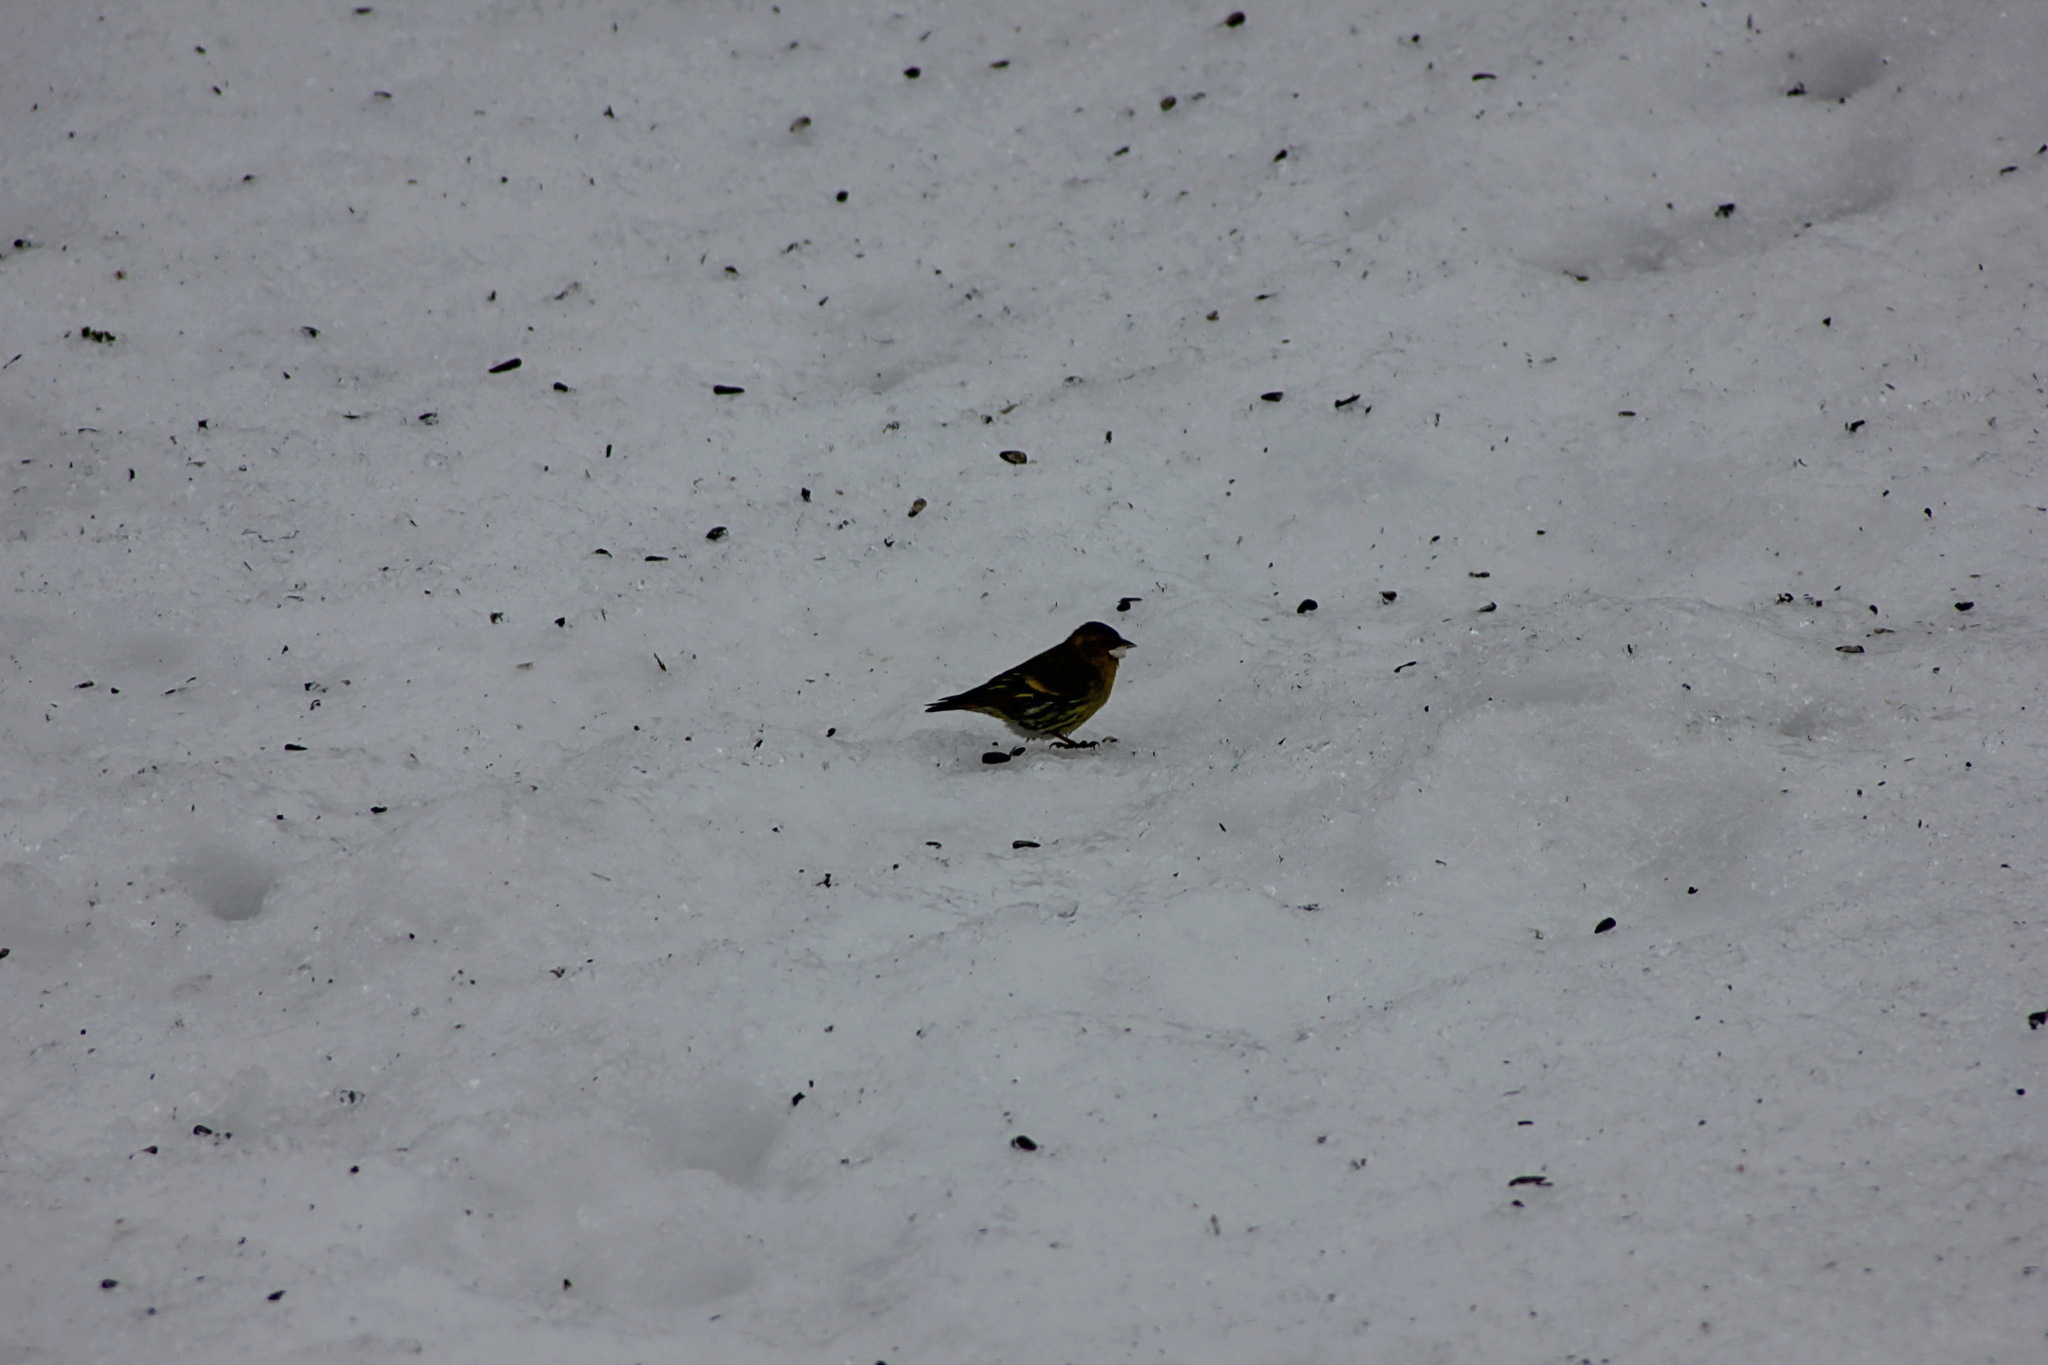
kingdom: Animalia
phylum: Chordata
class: Aves
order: Passeriformes
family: Fringillidae
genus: Spinus
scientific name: Spinus spinus
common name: Eurasian siskin
